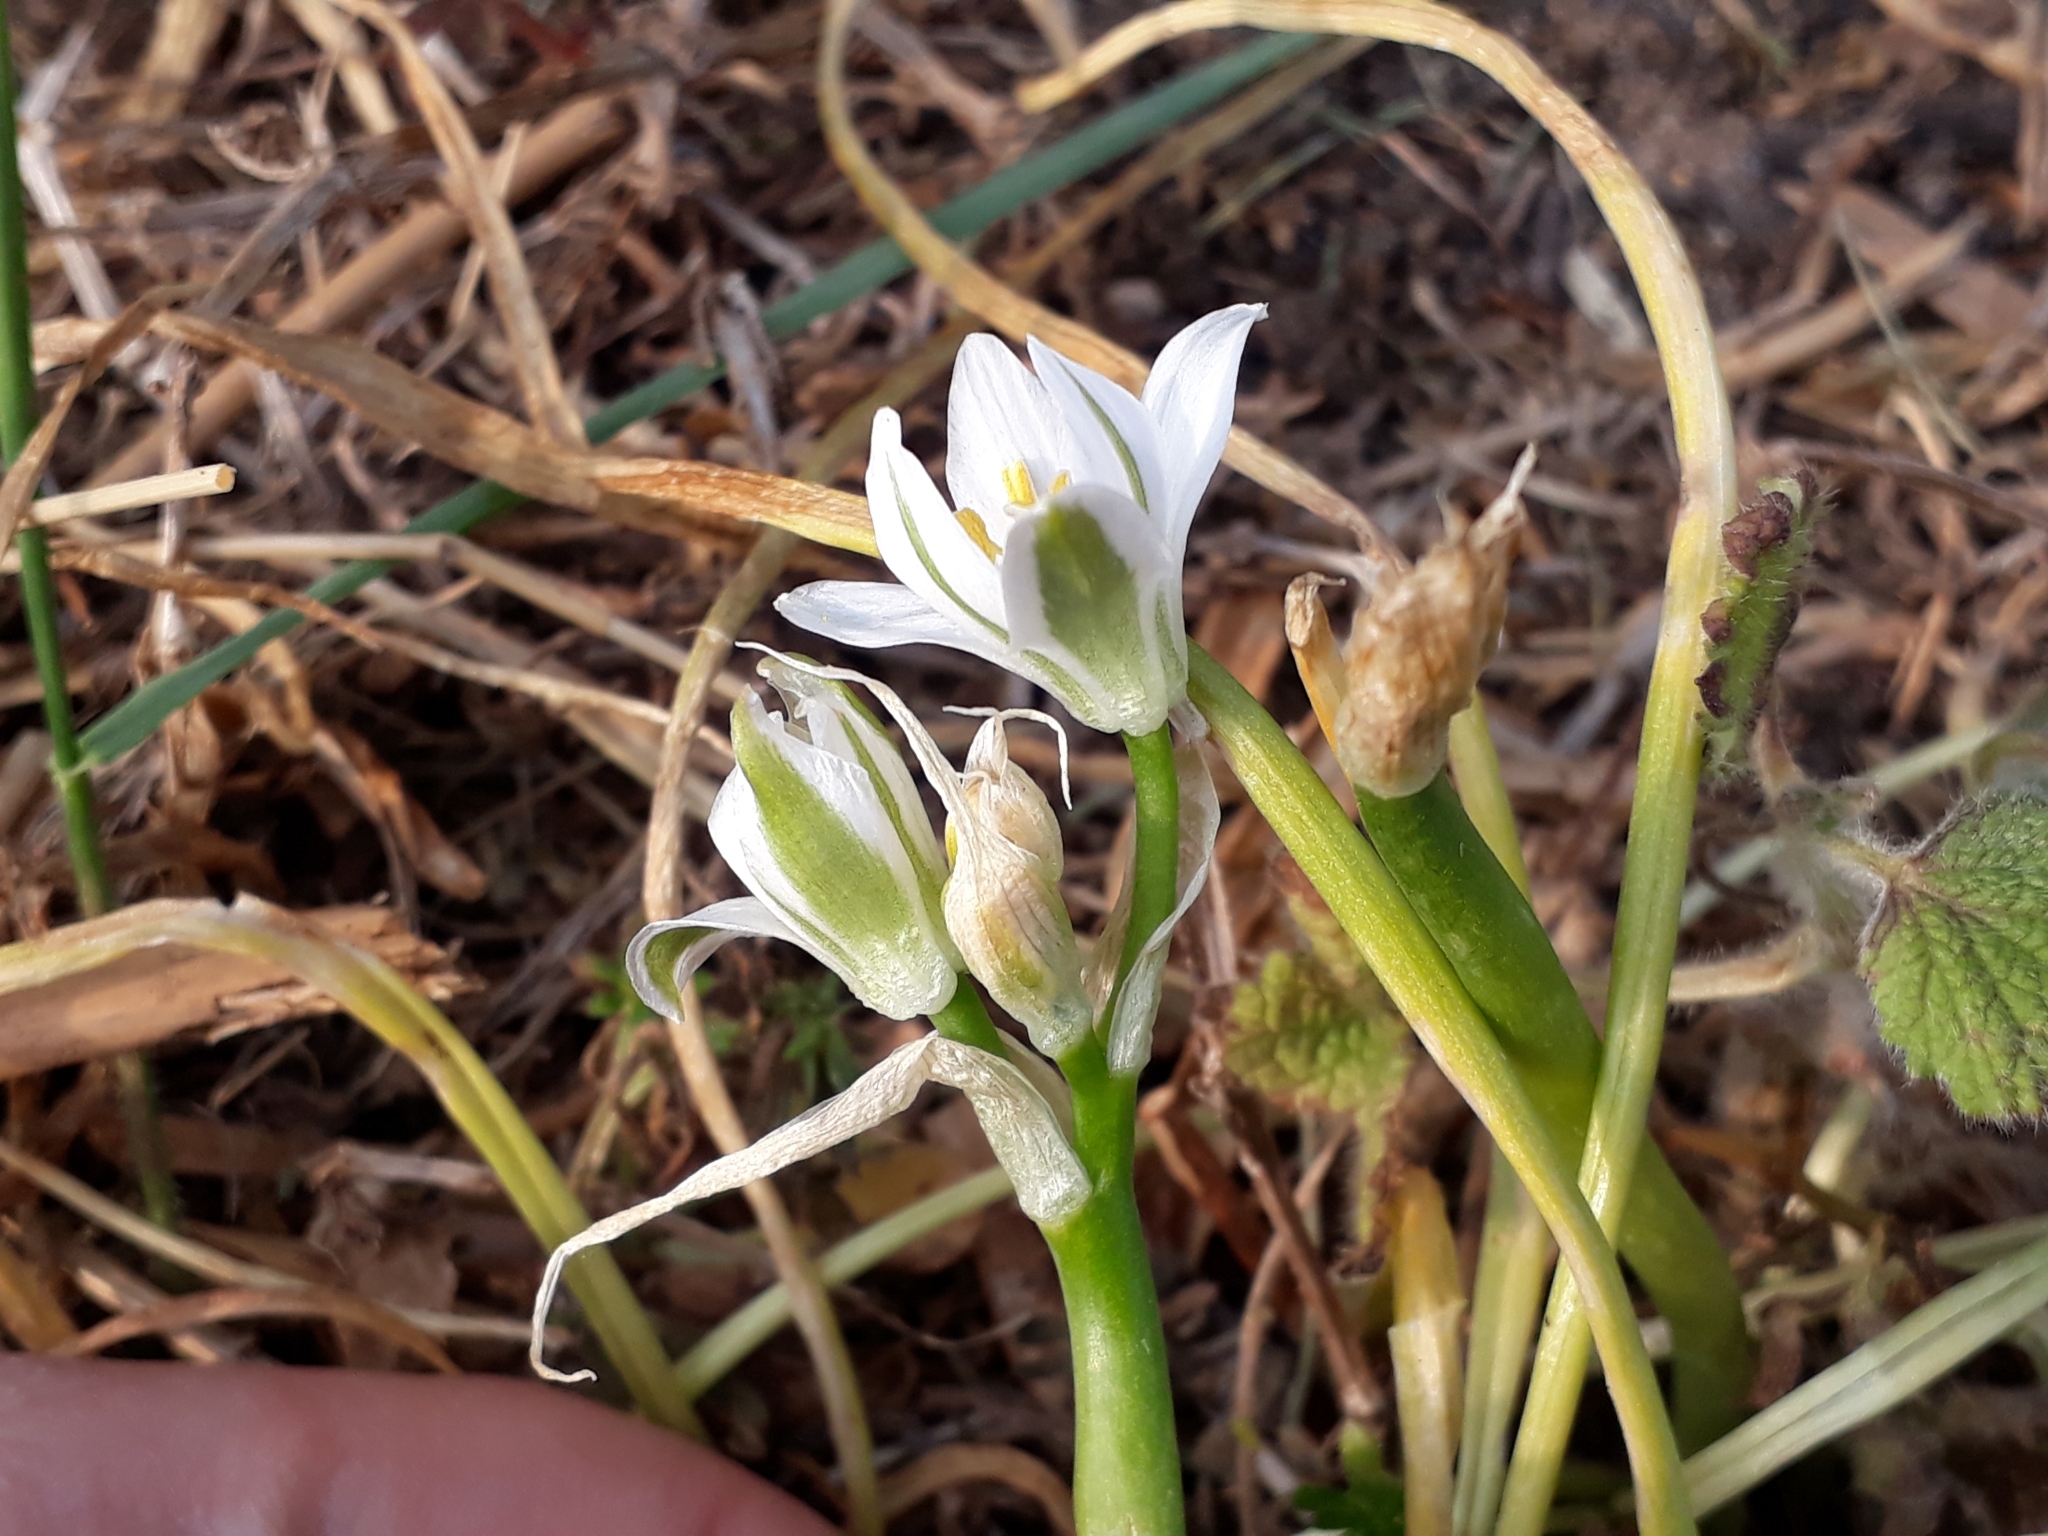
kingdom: Plantae
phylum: Tracheophyta
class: Liliopsida
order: Asparagales
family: Asparagaceae
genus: Ornithogalum
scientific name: Ornithogalum umbellatum
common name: Garden star-of-bethlehem
